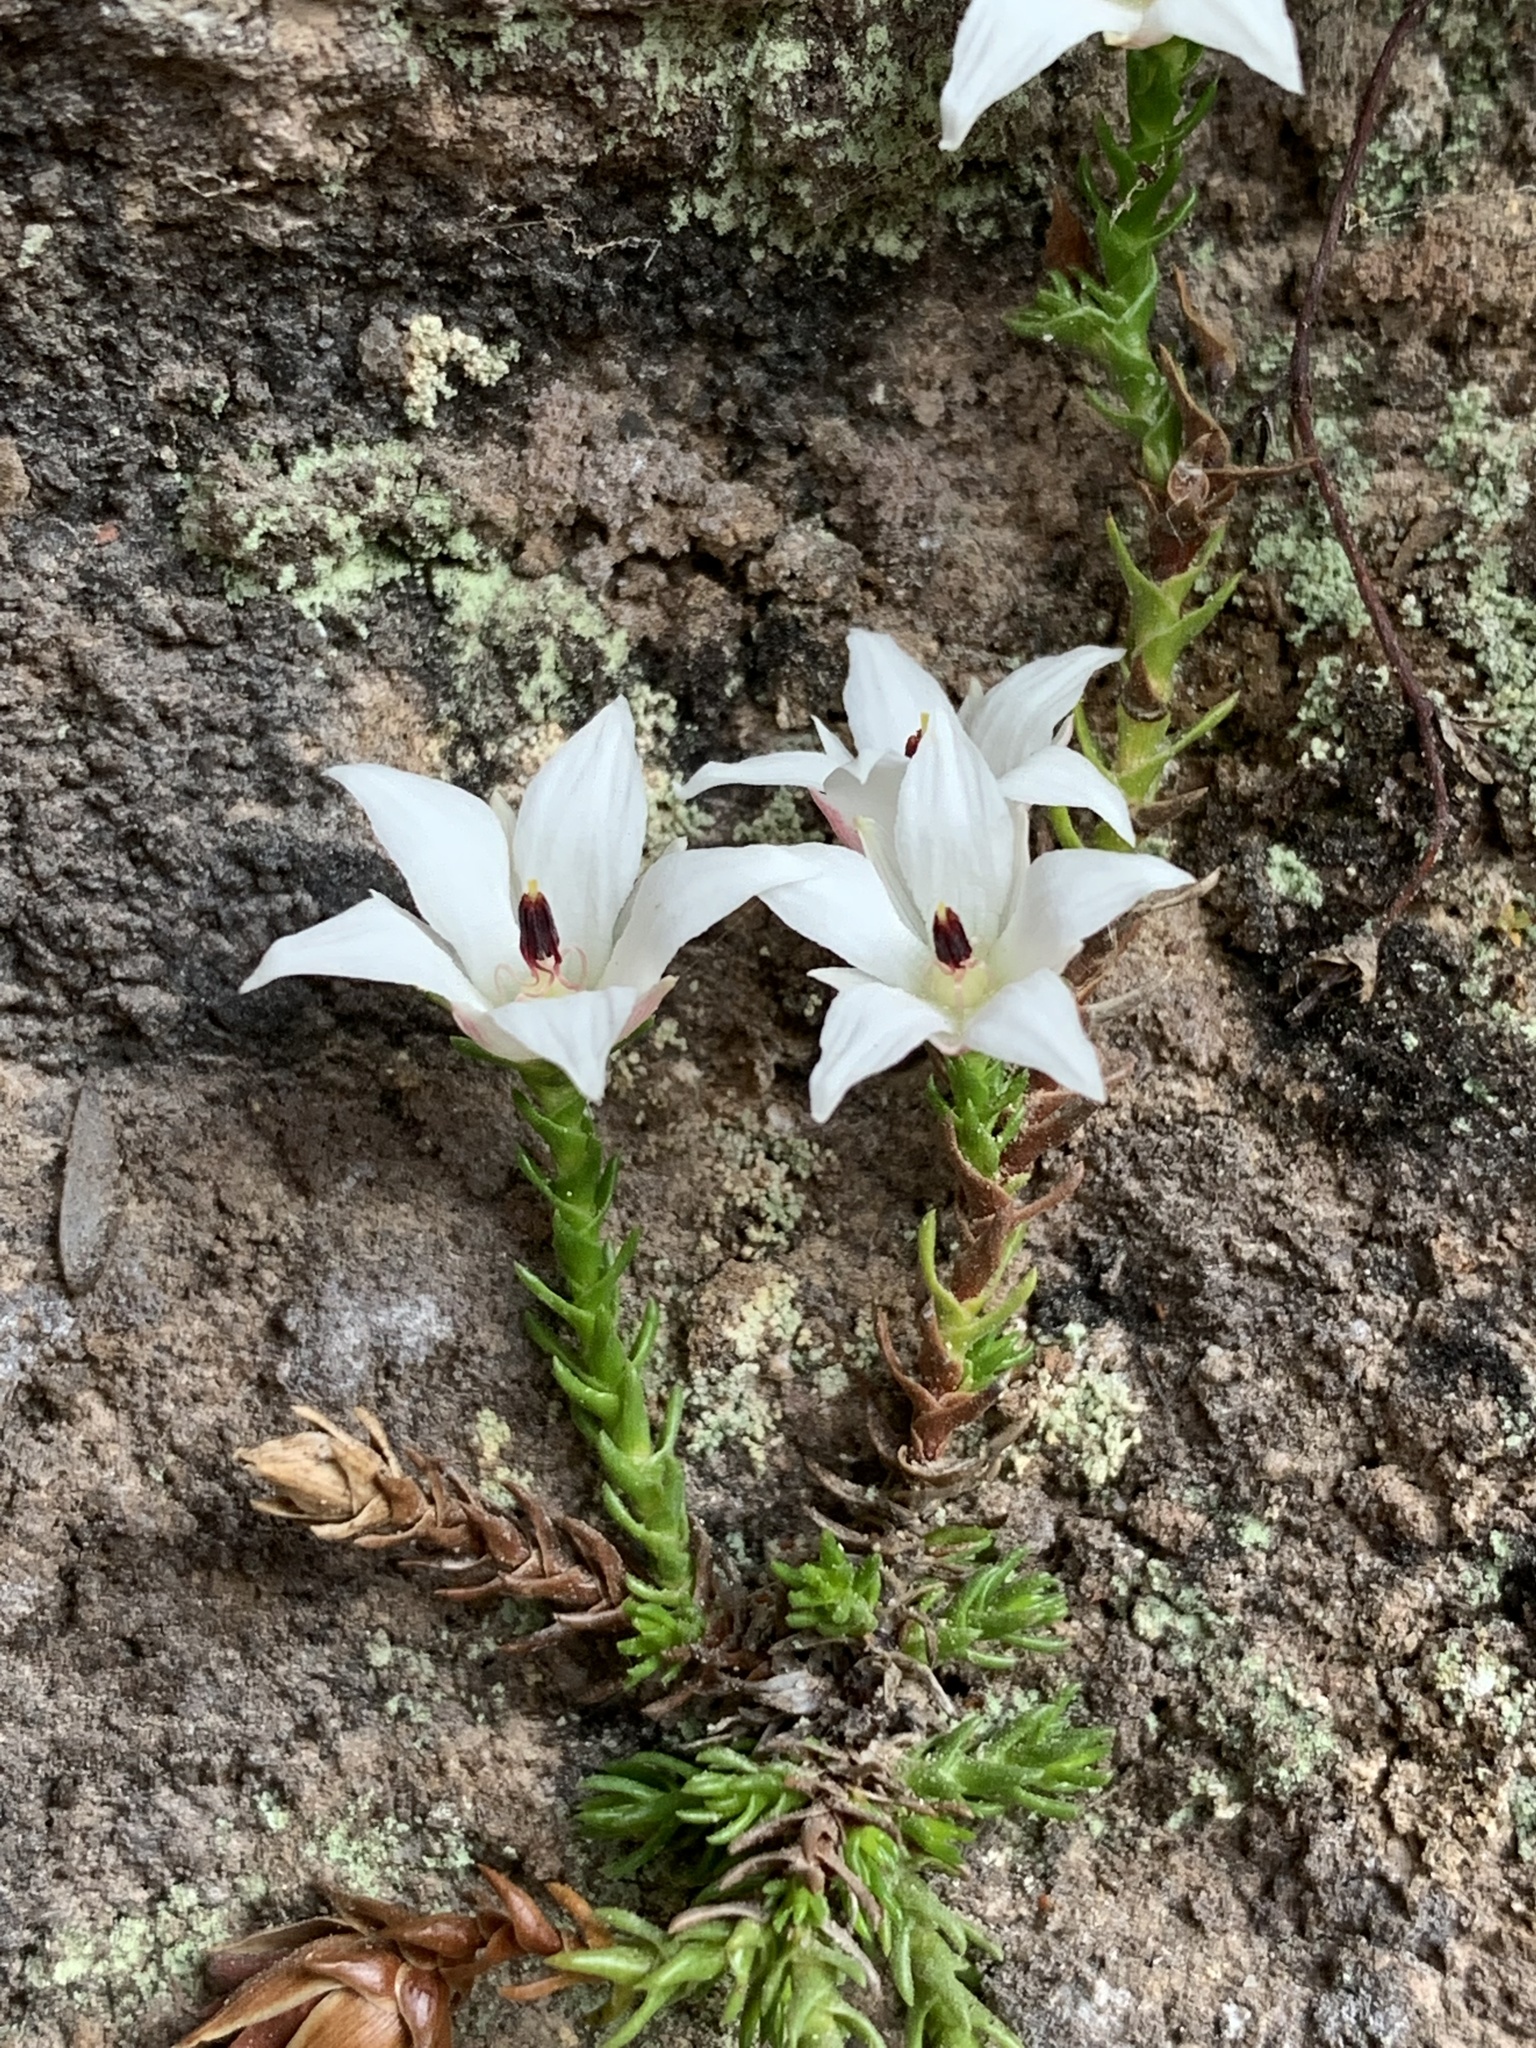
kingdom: Plantae
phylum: Tracheophyta
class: Magnoliopsida
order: Ericales
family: Ericaceae
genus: Sprengelia
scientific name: Sprengelia monticola
